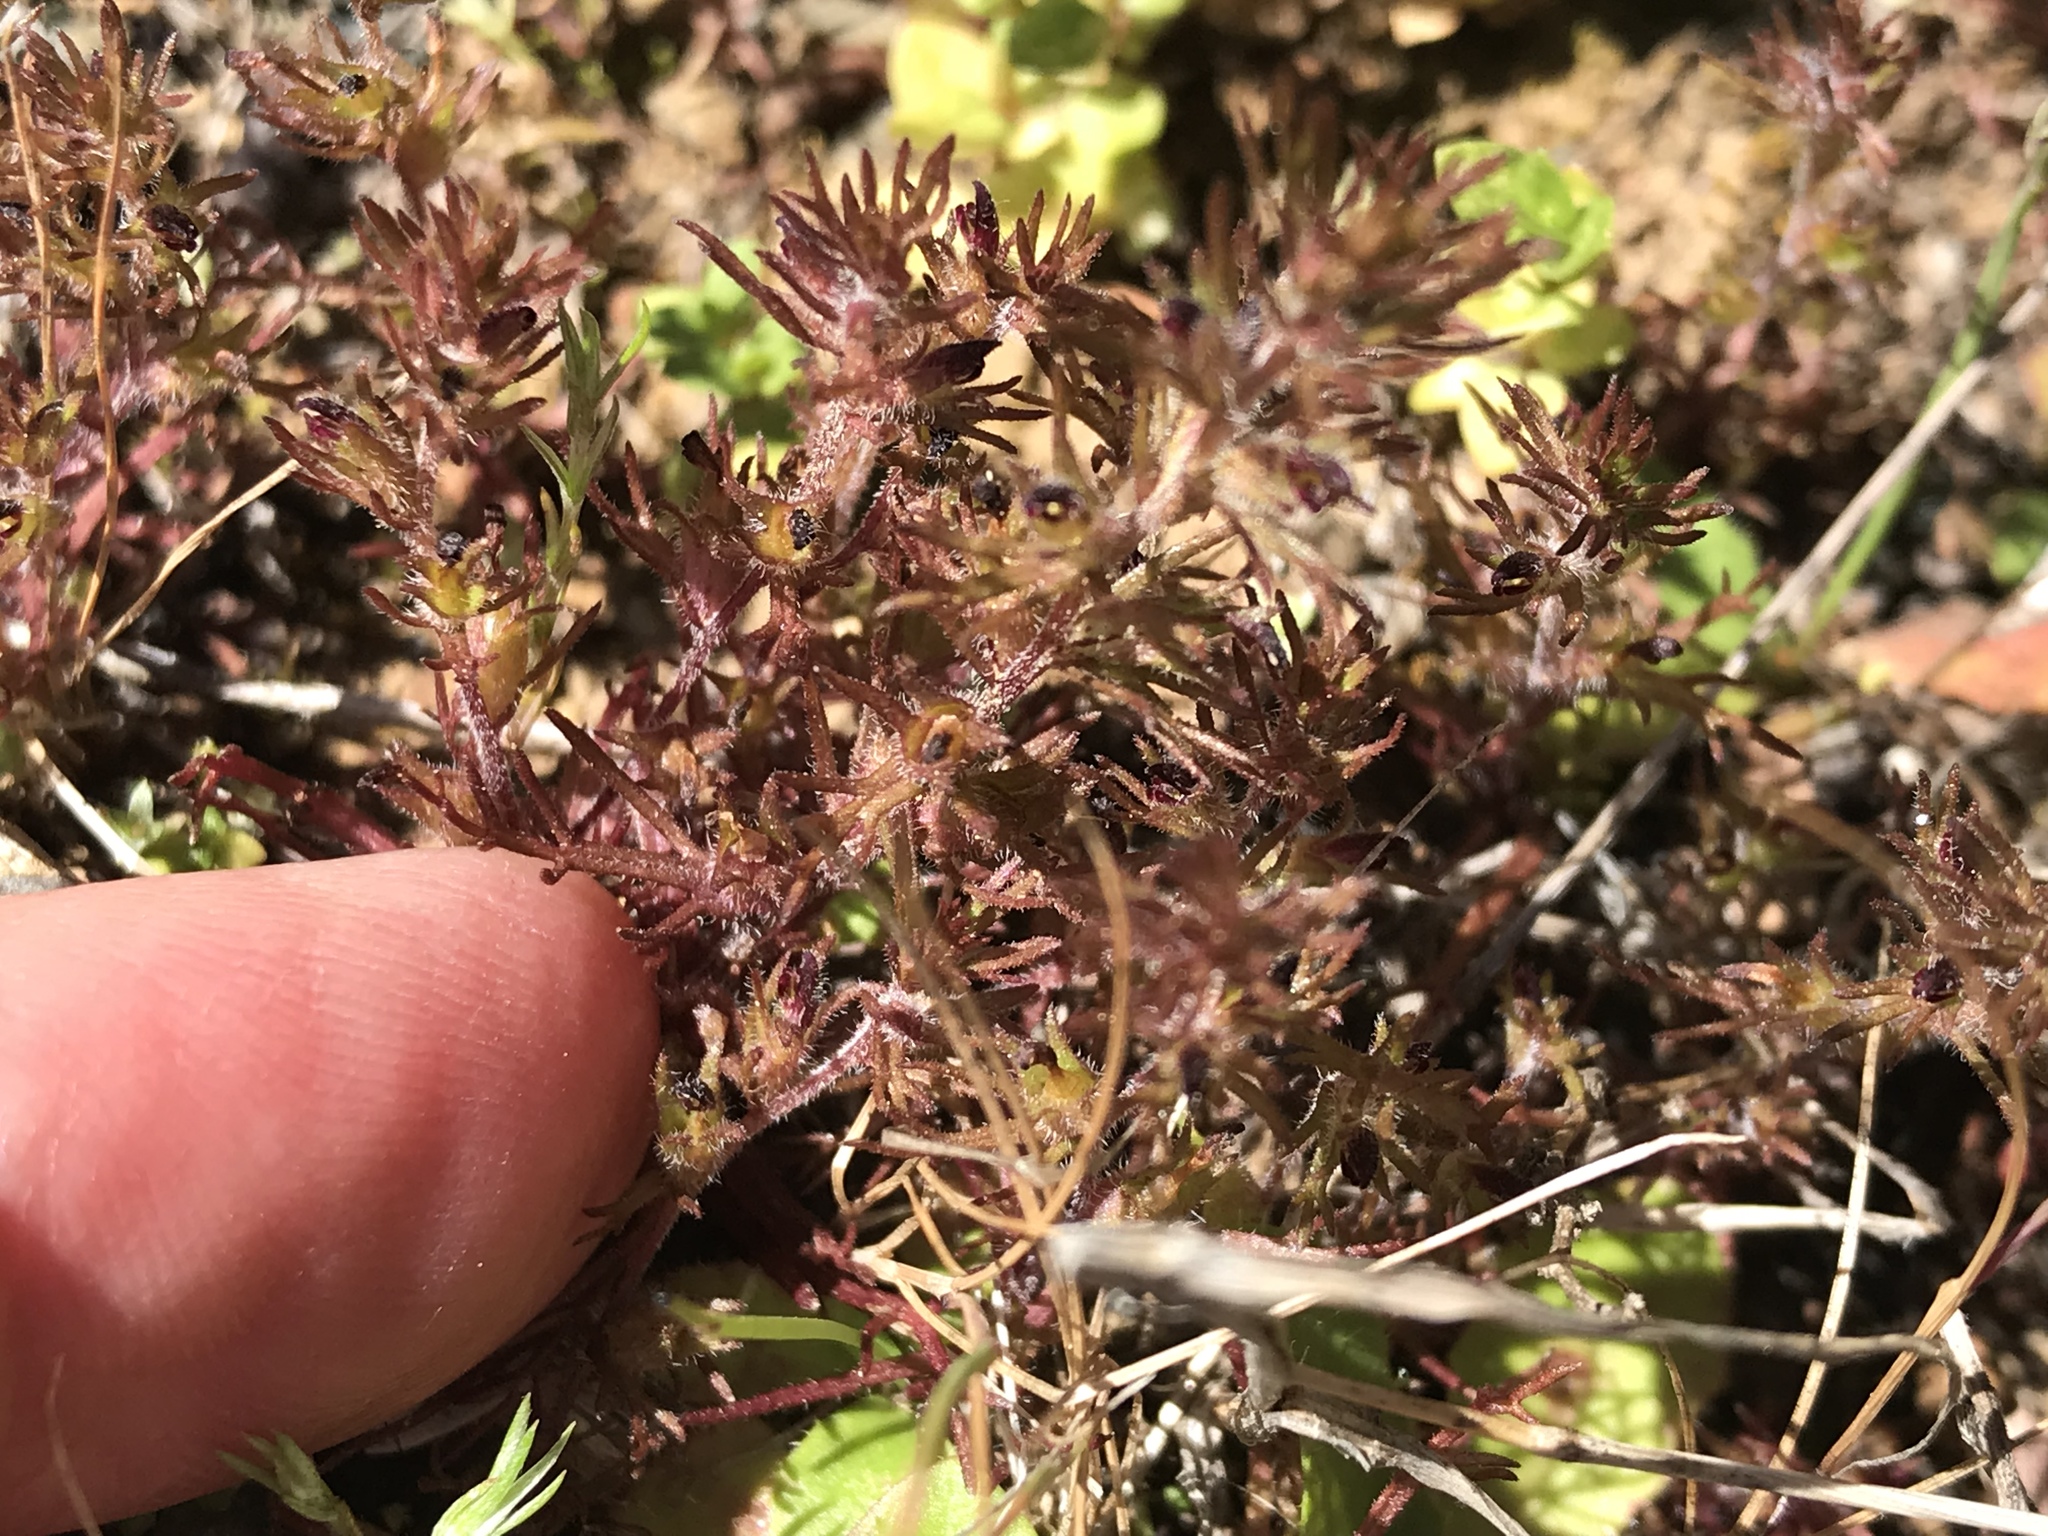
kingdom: Plantae
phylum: Tracheophyta
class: Magnoliopsida
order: Lamiales
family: Orobanchaceae
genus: Triphysaria
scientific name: Triphysaria pusilla
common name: Dwarf false owl-clover
